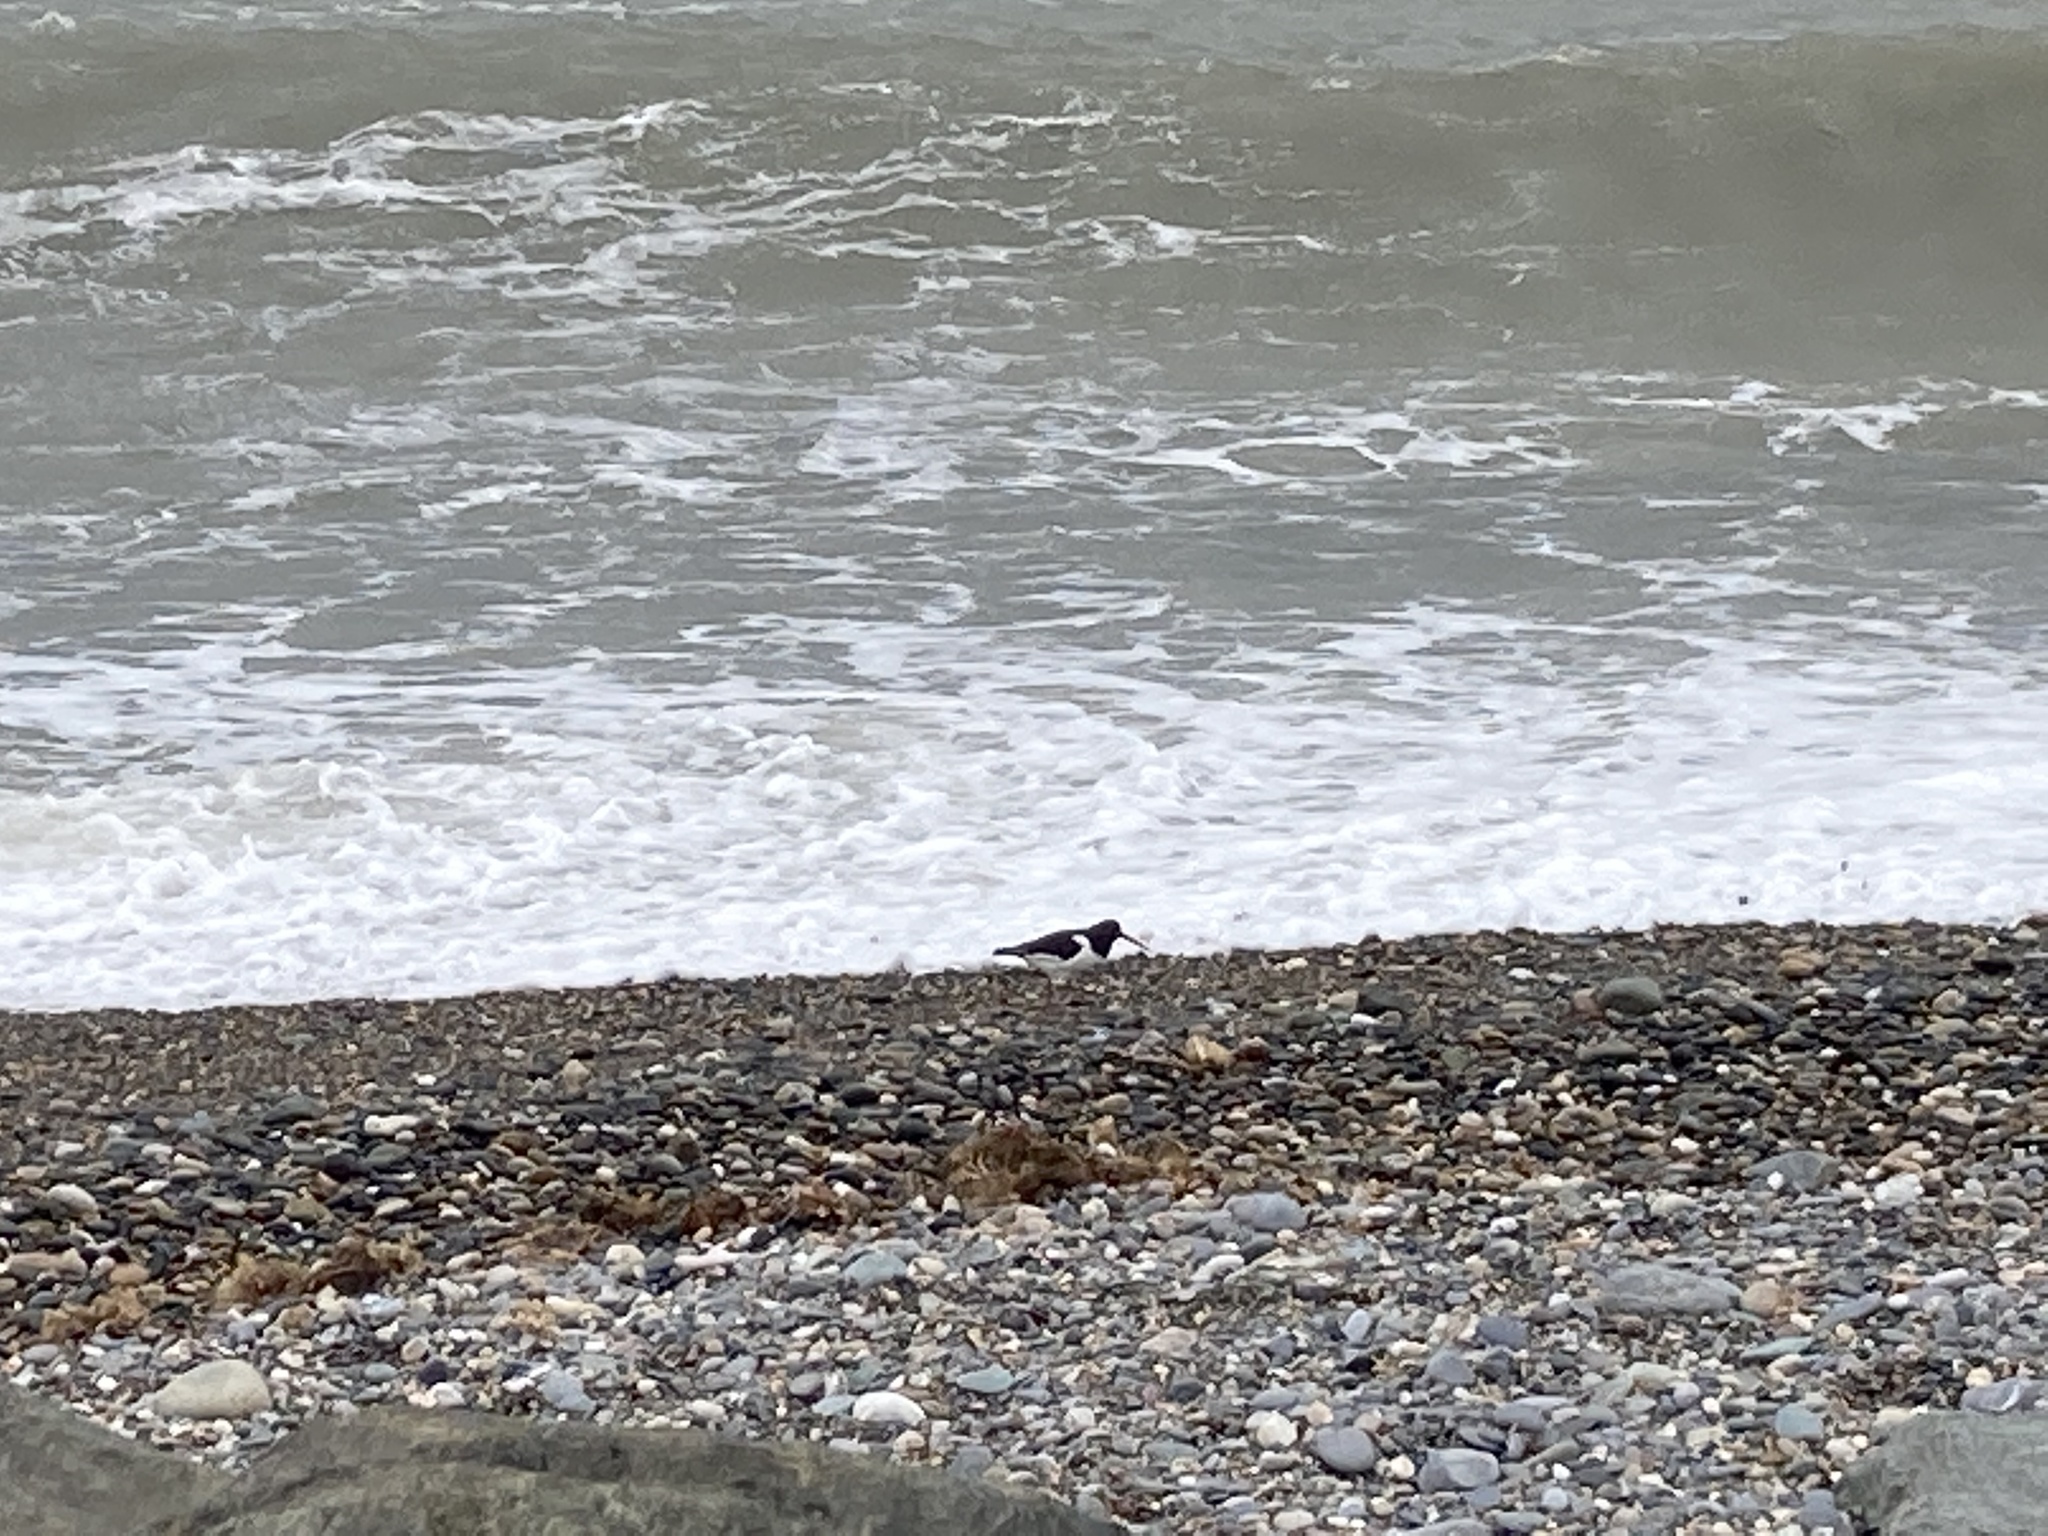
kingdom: Animalia
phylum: Chordata
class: Aves
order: Charadriiformes
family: Haematopodidae
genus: Haematopus
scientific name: Haematopus ostralegus
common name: Eurasian oystercatcher
